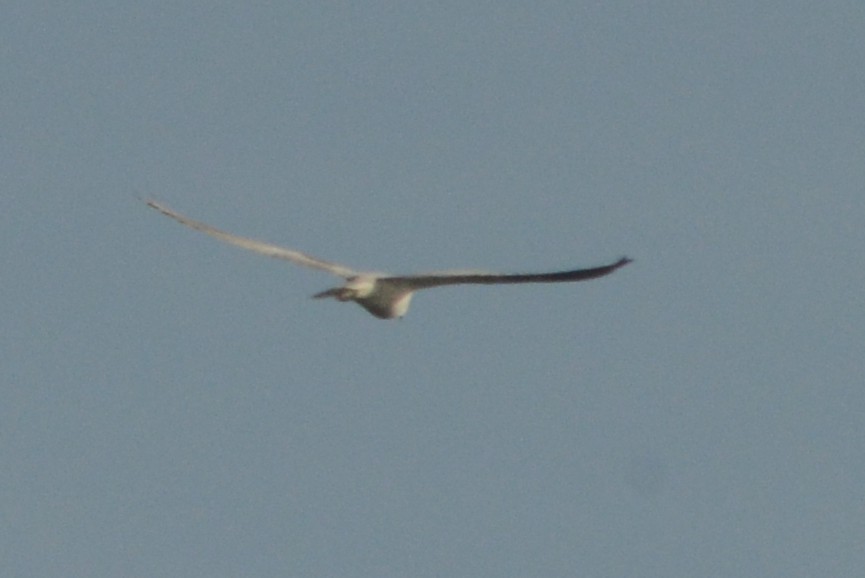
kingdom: Animalia
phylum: Chordata
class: Aves
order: Accipitriformes
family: Accipitridae
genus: Elanus
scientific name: Elanus leucurus
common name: White-tailed kite
